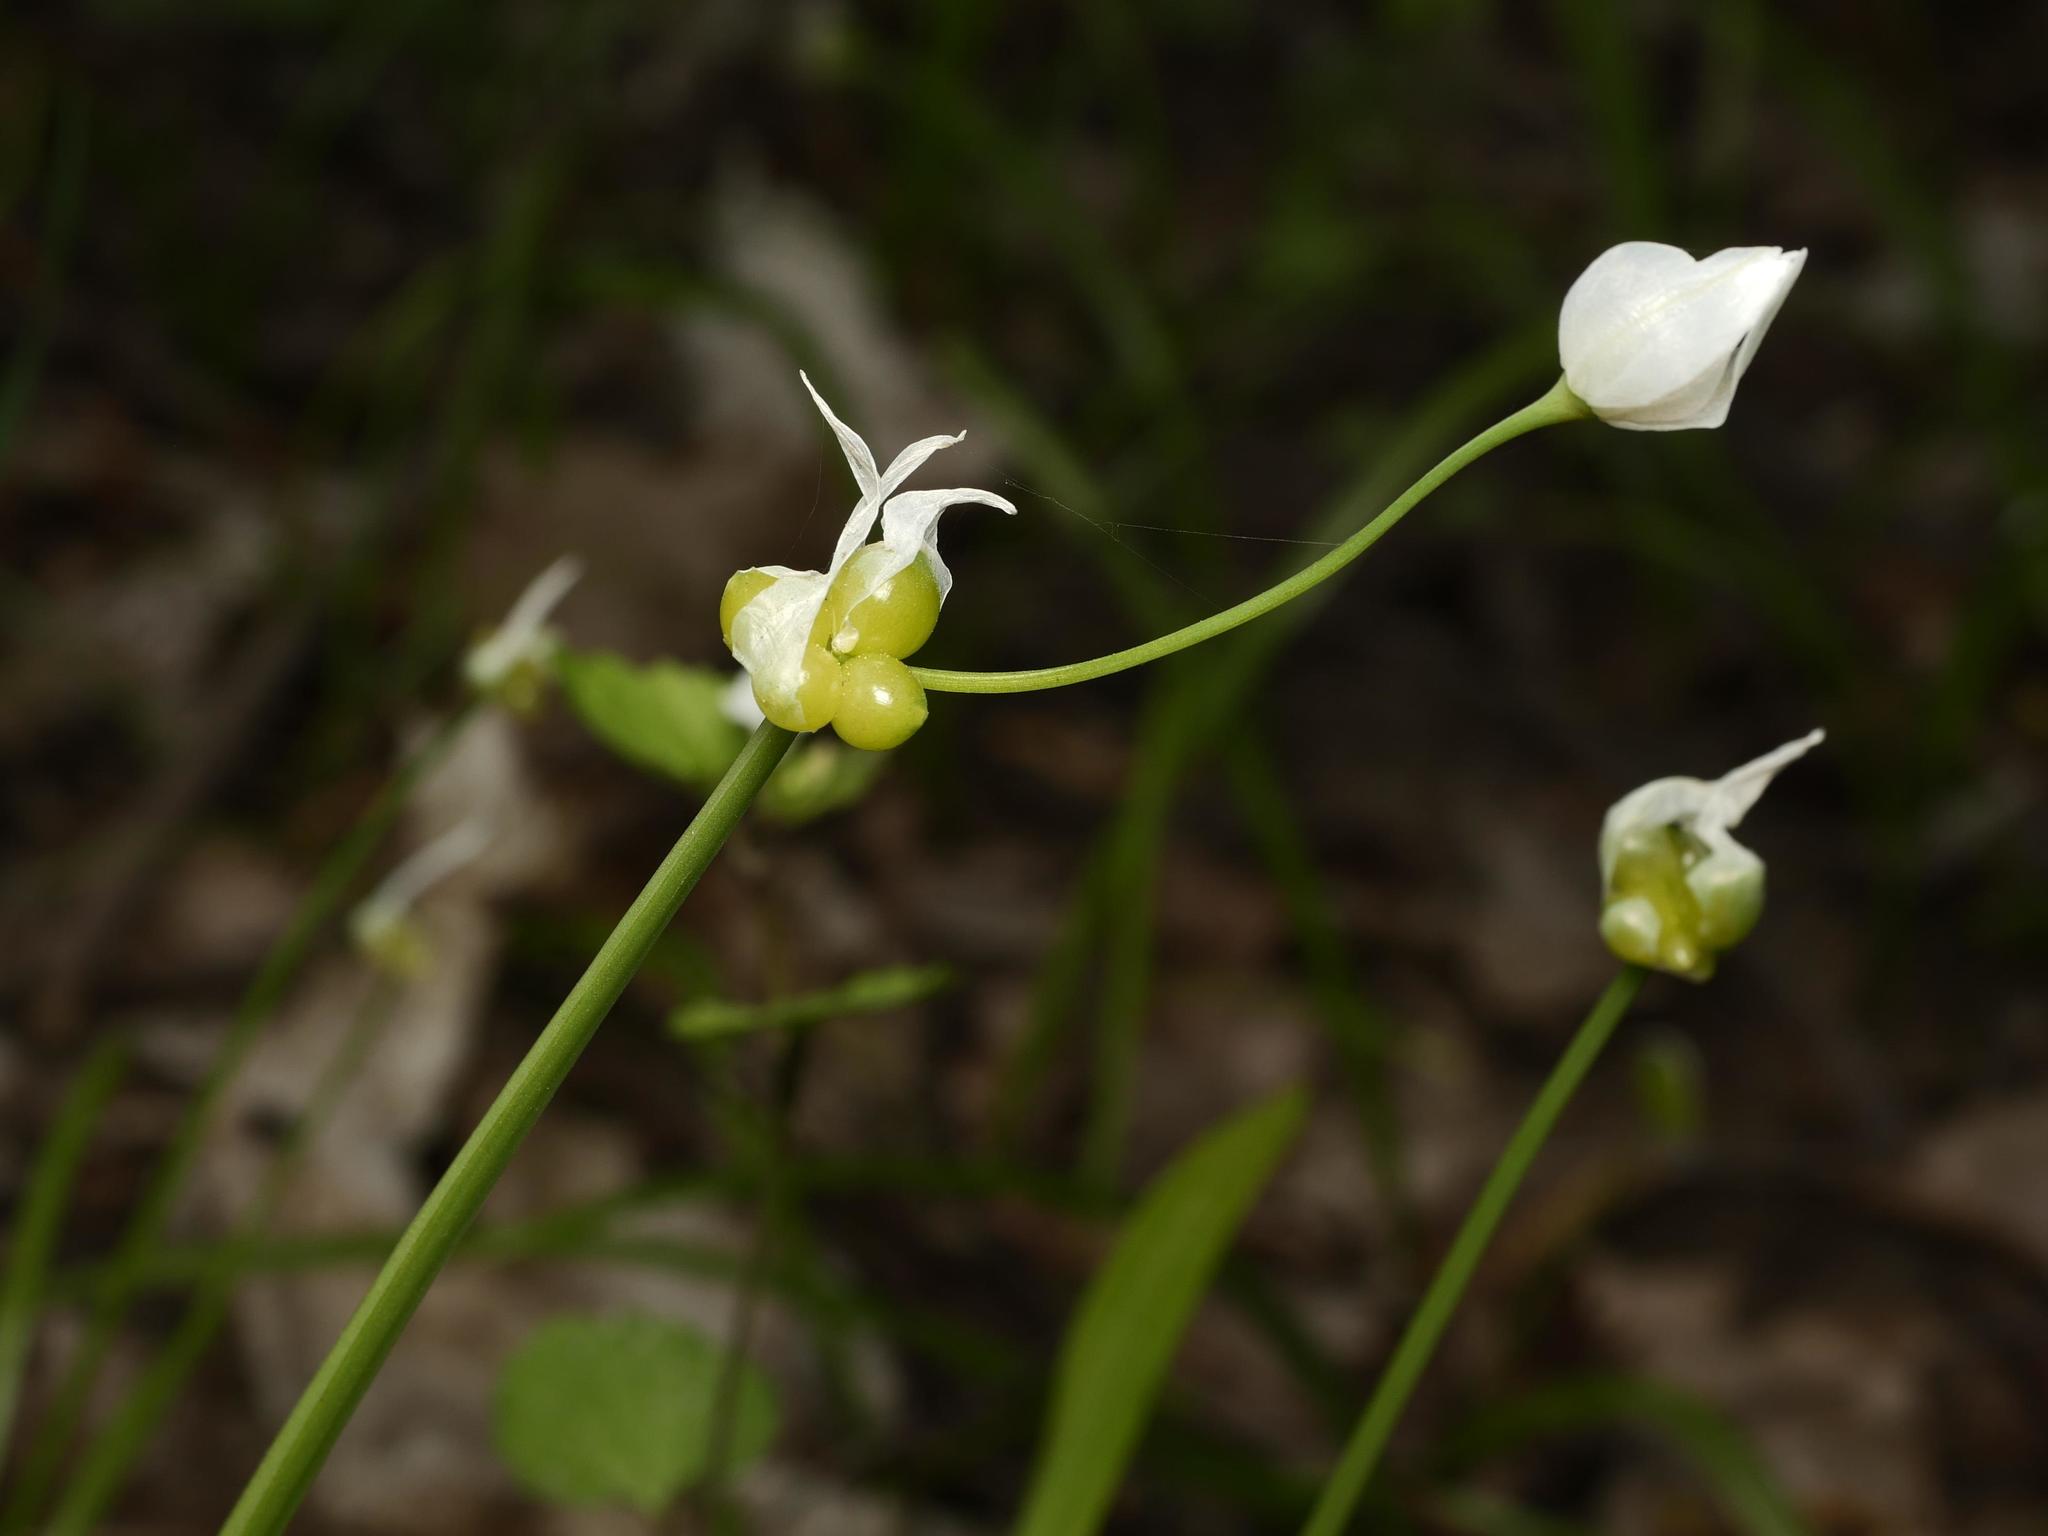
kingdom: Plantae
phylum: Tracheophyta
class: Liliopsida
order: Asparagales
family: Amaryllidaceae
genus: Allium
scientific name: Allium paradoxum
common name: Few-flowered garlic
